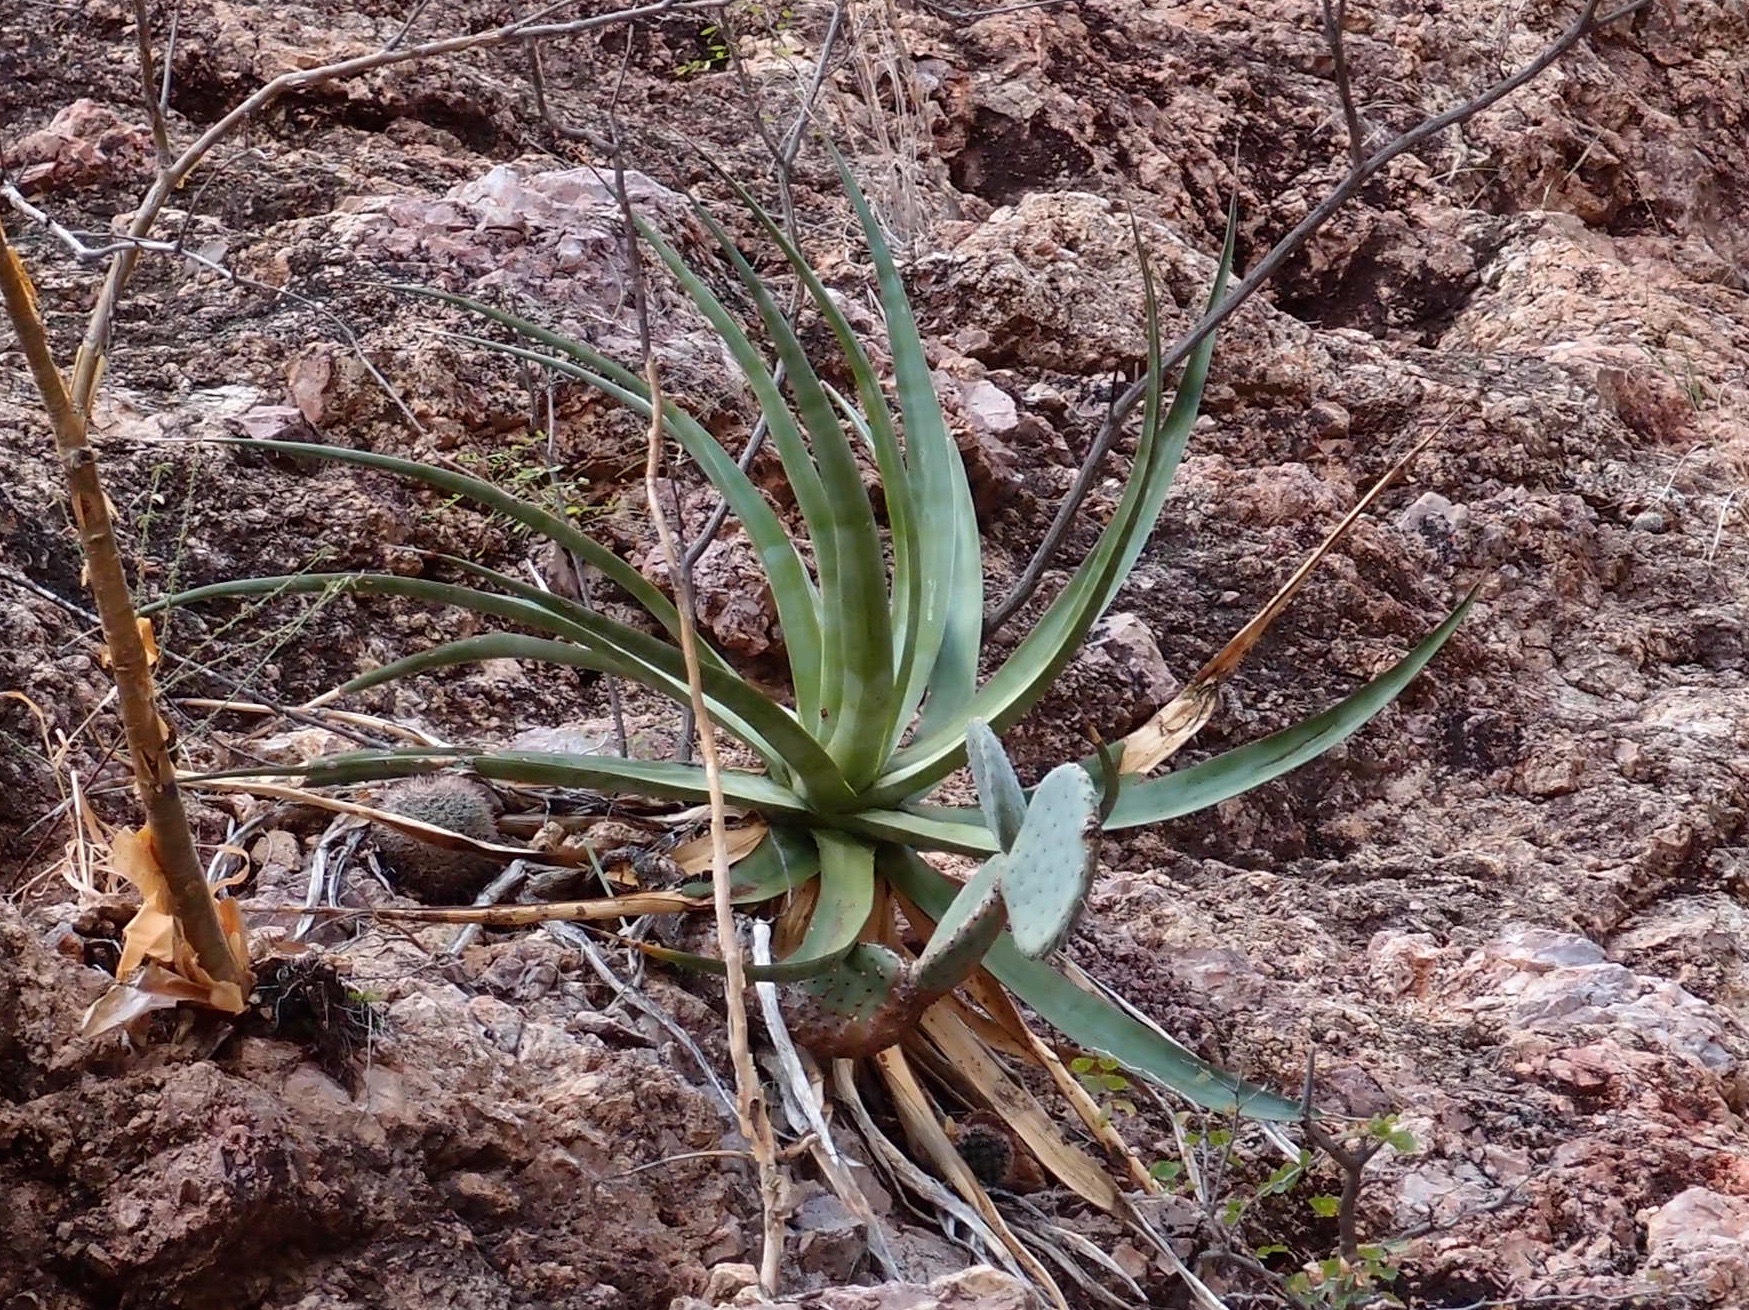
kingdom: Plantae
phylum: Tracheophyta
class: Liliopsida
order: Asparagales
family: Asparagaceae
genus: Agave
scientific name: Agave chrysoglossa
